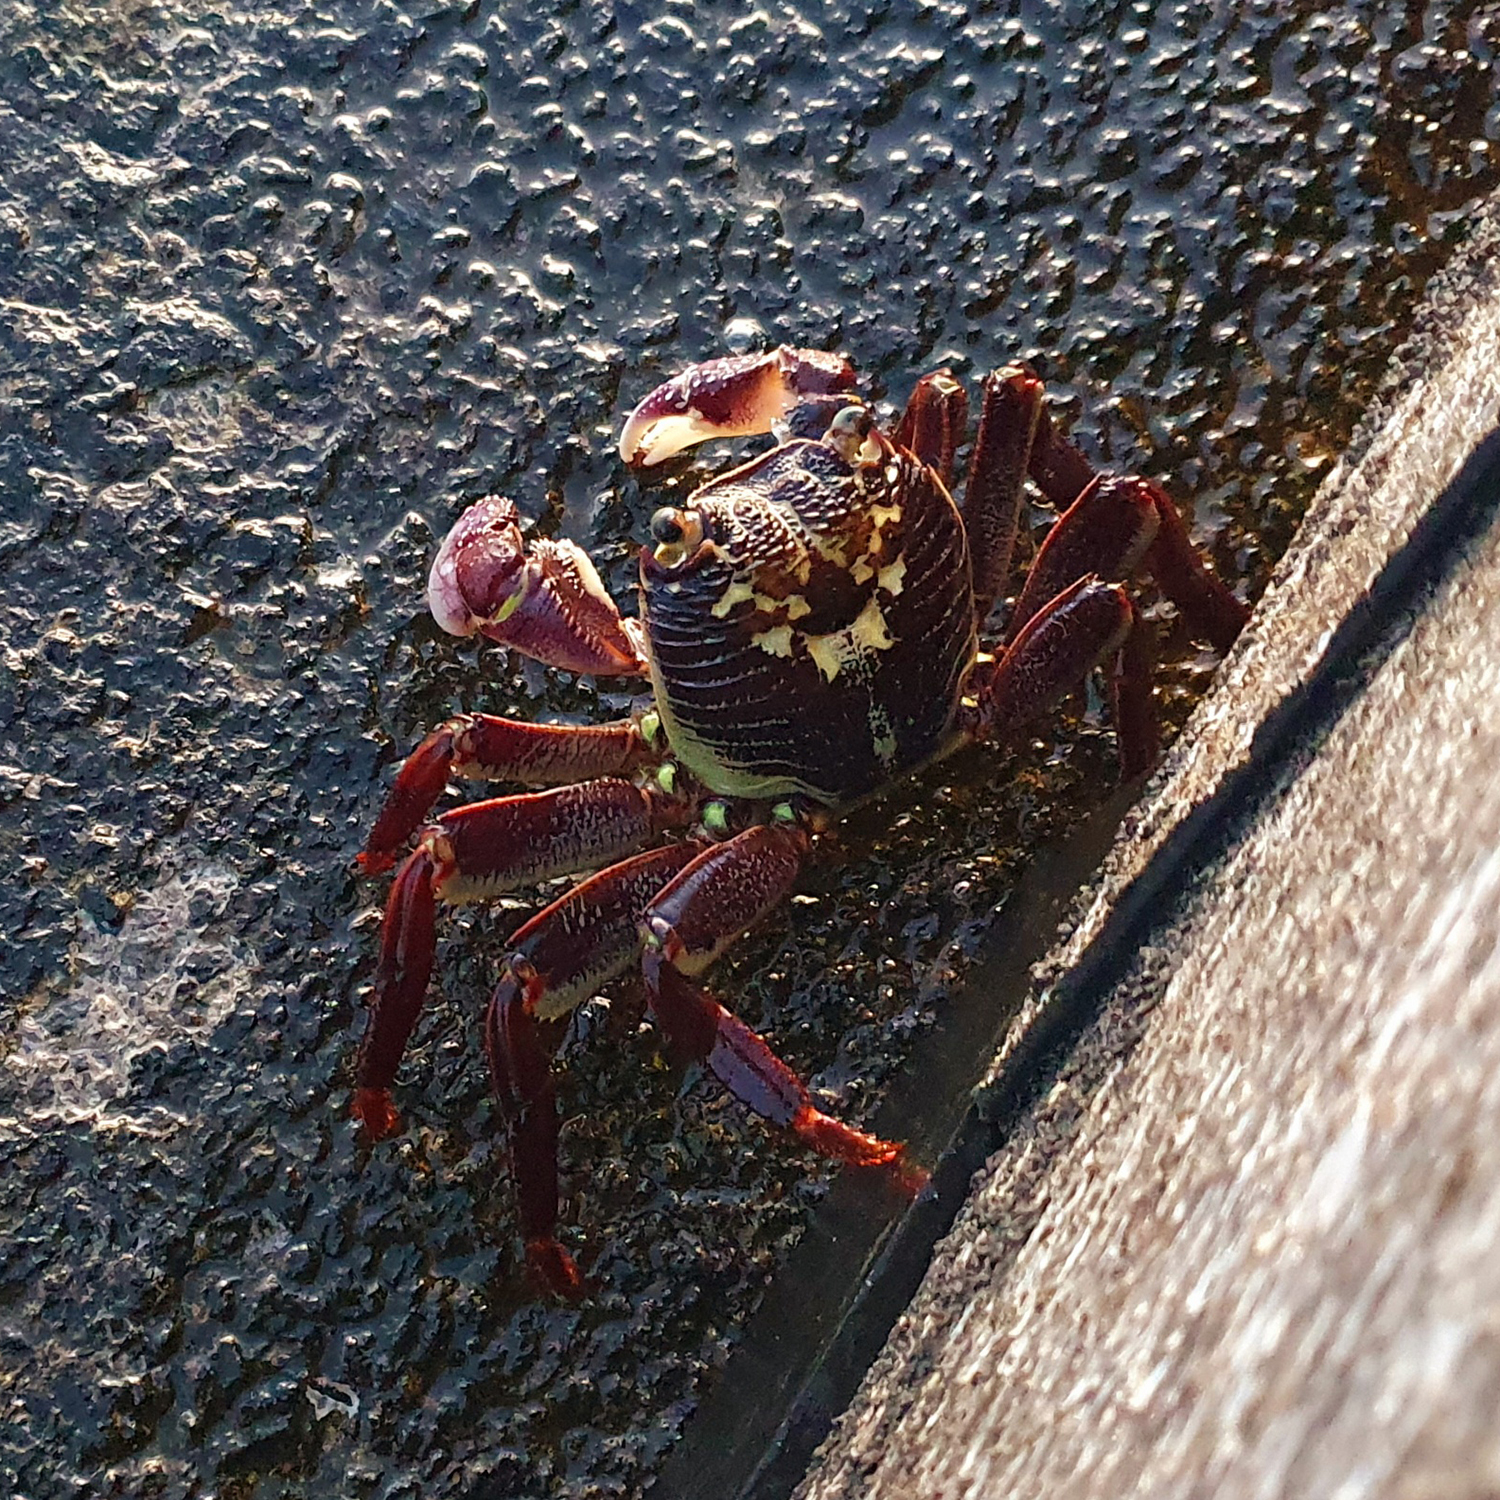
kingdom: Animalia
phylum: Arthropoda
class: Malacostraca
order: Decapoda
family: Grapsidae
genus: Leptograpsus
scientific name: Leptograpsus variegatus
